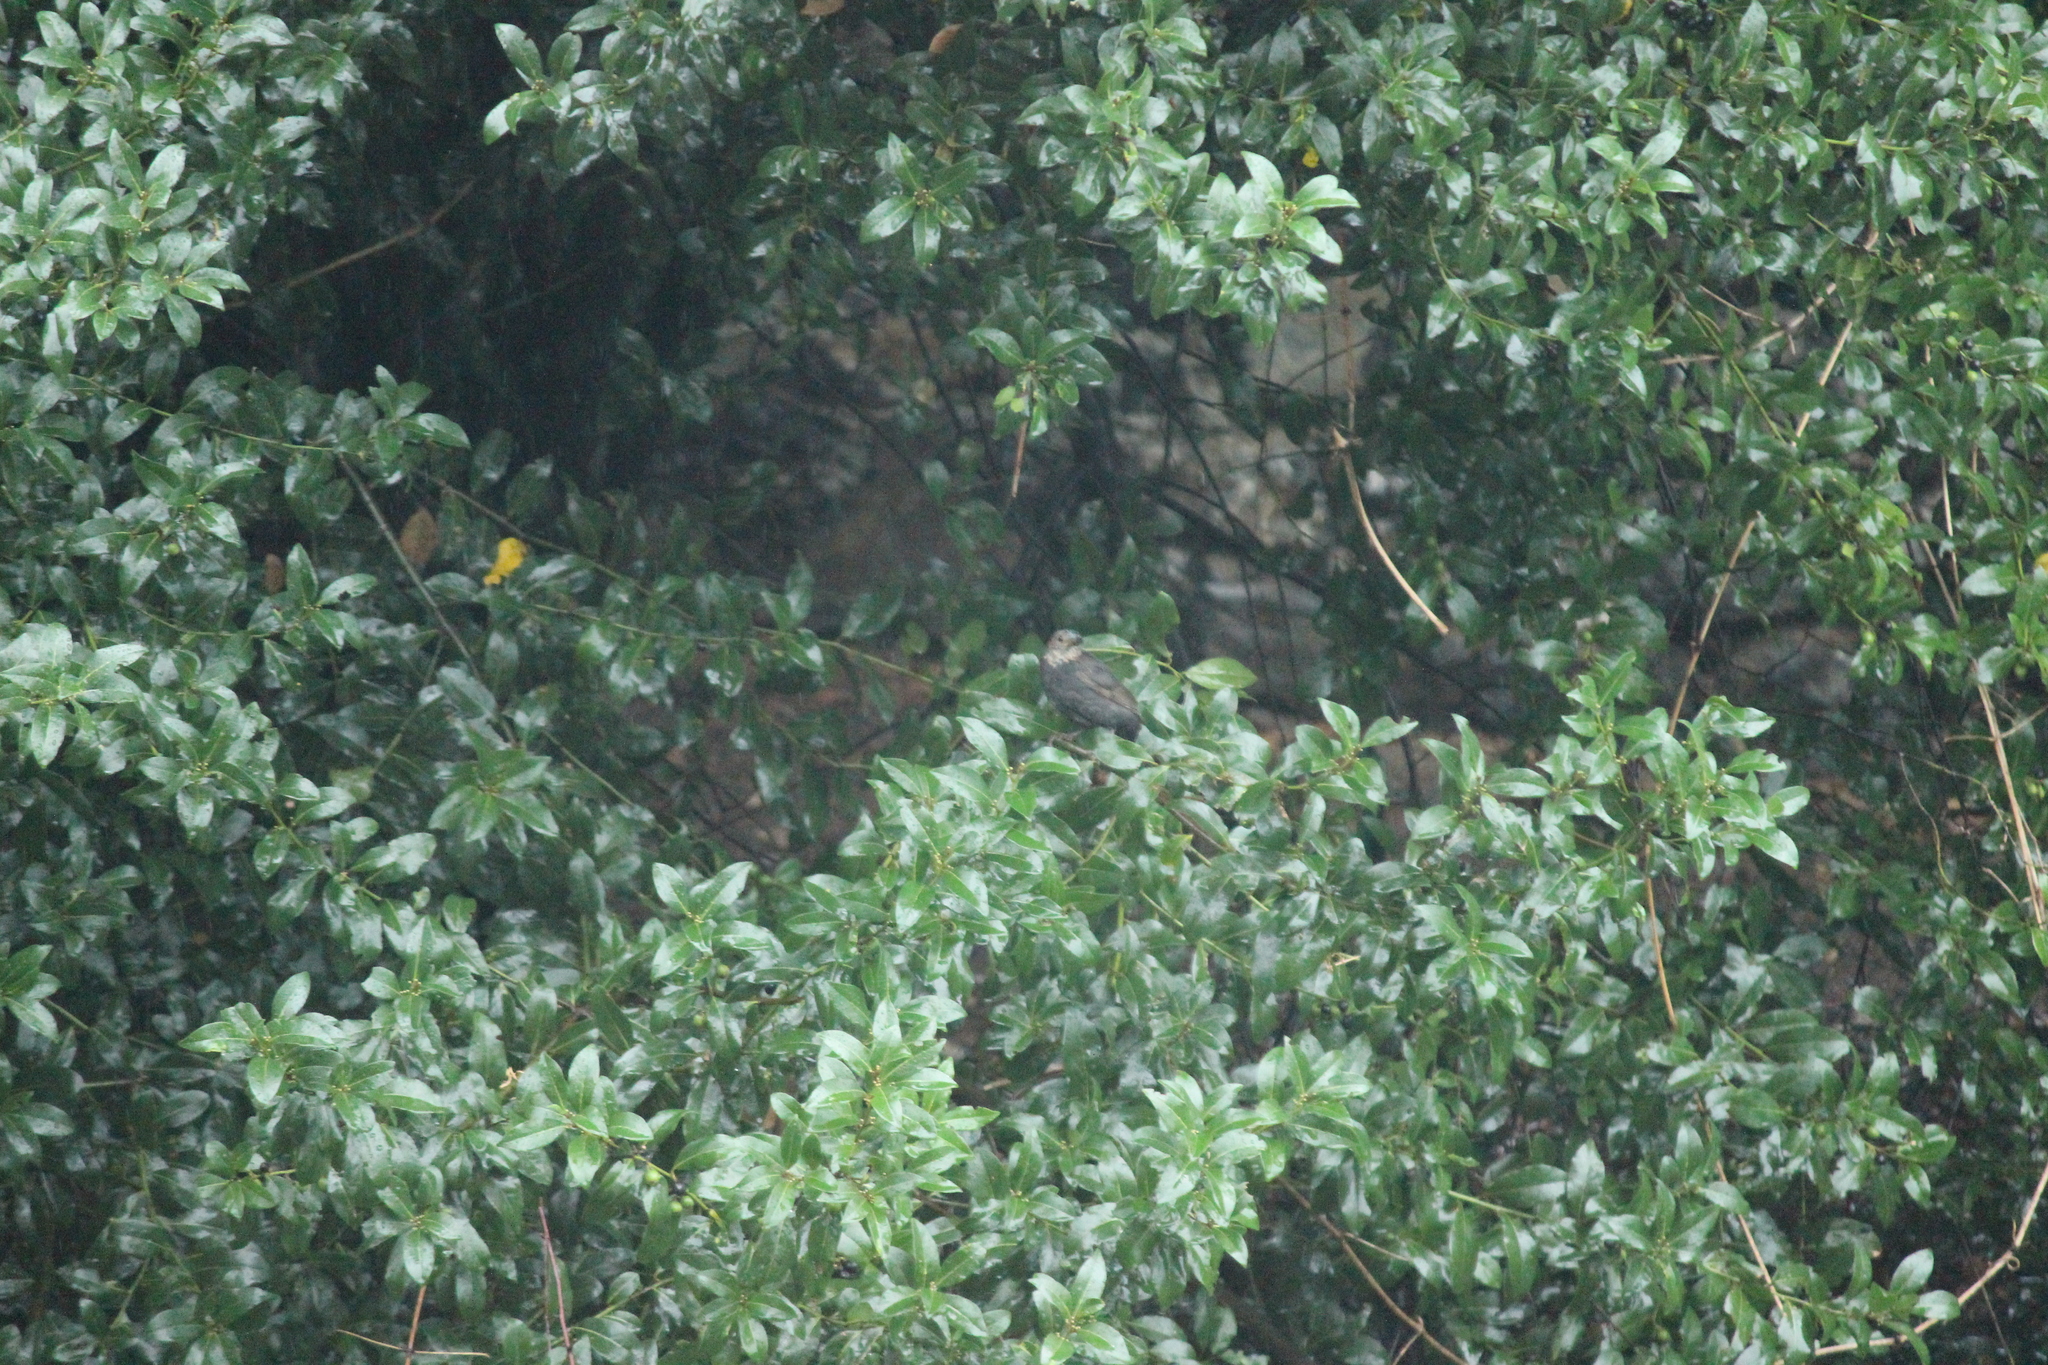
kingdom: Animalia
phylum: Chordata
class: Aves
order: Passeriformes
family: Turdidae
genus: Turdus
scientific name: Turdus merula
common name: Common blackbird
